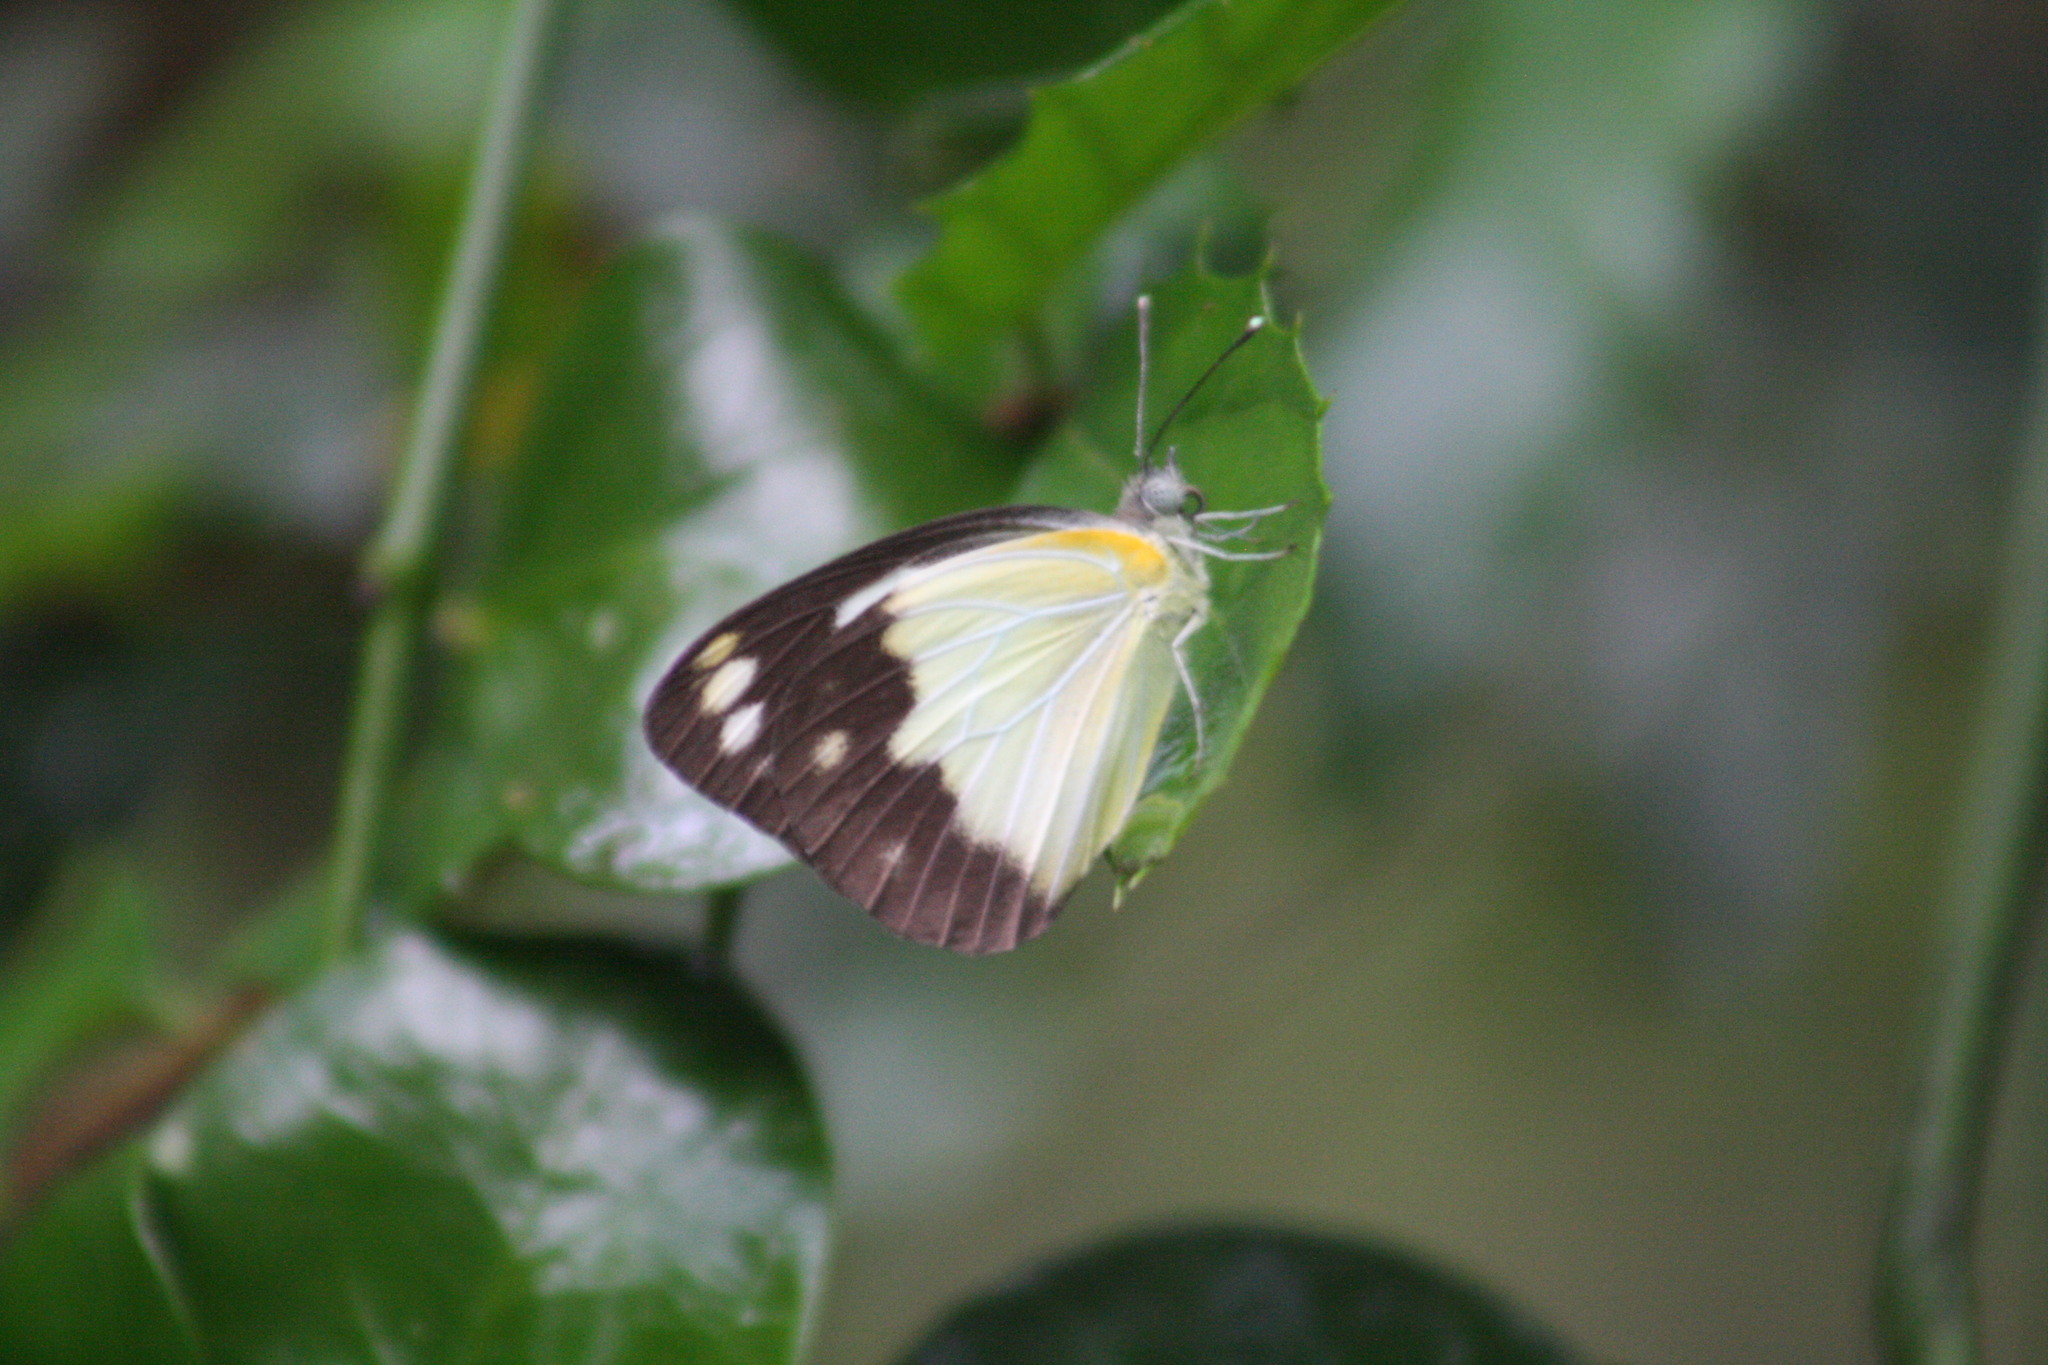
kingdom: Animalia
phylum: Arthropoda
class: Insecta
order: Lepidoptera
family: Pieridae
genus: Cepora
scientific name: Cepora perimale
